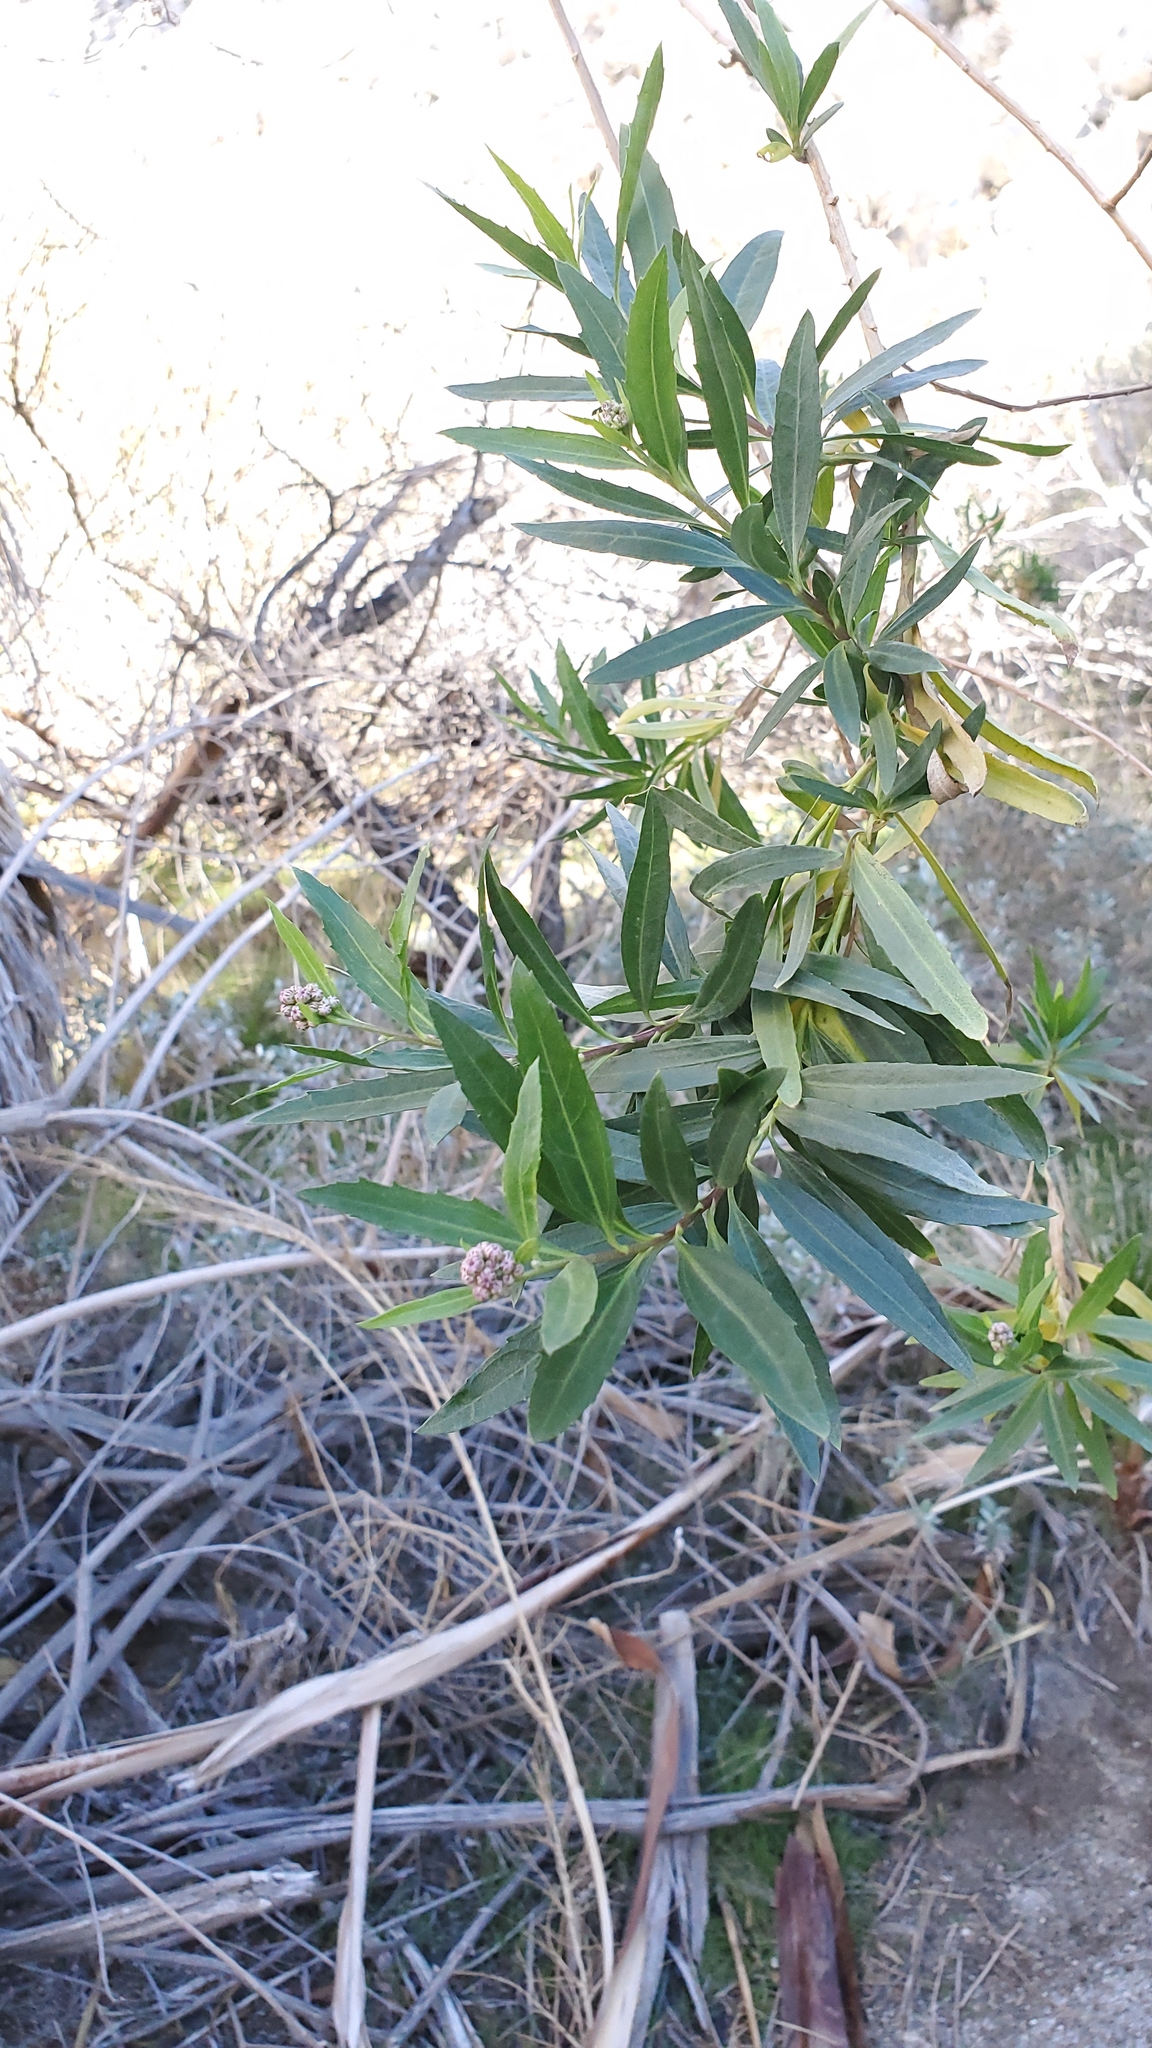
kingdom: Plantae
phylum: Tracheophyta
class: Magnoliopsida
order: Asterales
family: Asteraceae
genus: Baccharis
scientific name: Baccharis salicifolia
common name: Sticky baccharis
